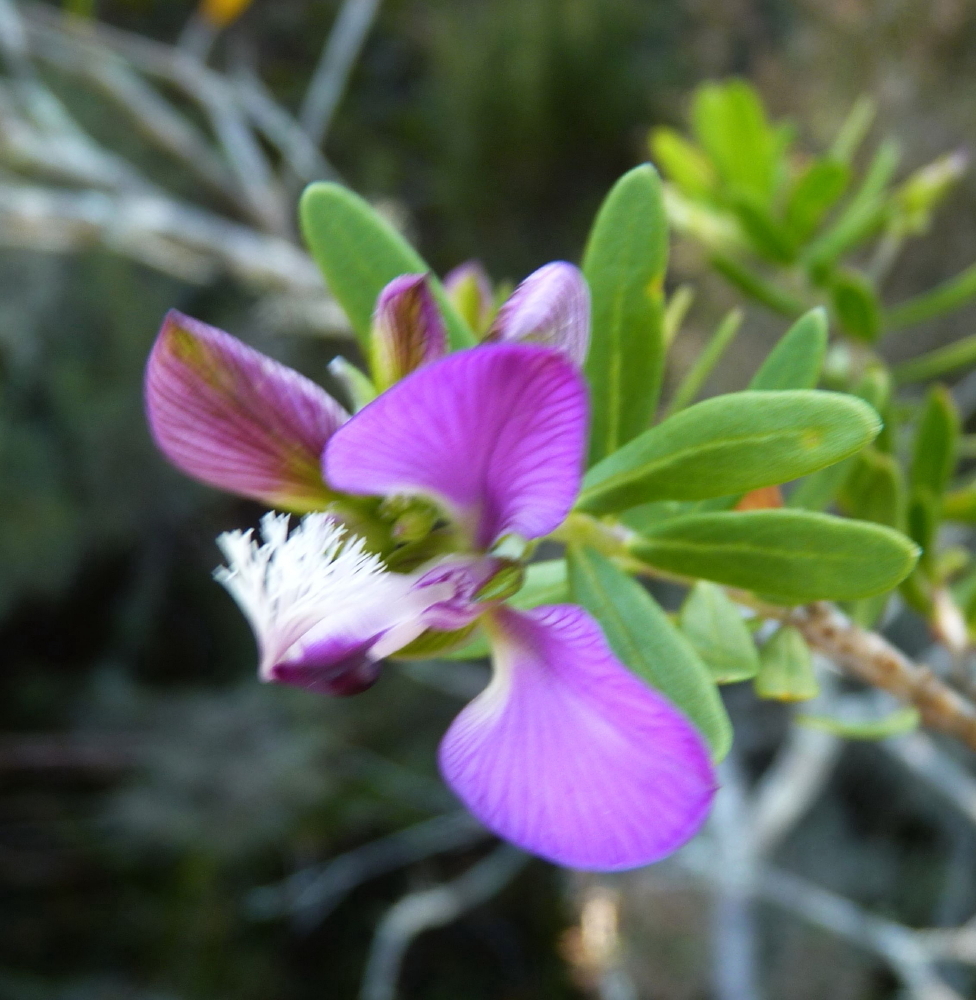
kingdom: Plantae
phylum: Tracheophyta
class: Magnoliopsida
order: Fabales
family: Polygalaceae
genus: Polygala
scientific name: Polygala myrtifolia
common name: Myrtle-leaf milkwort
